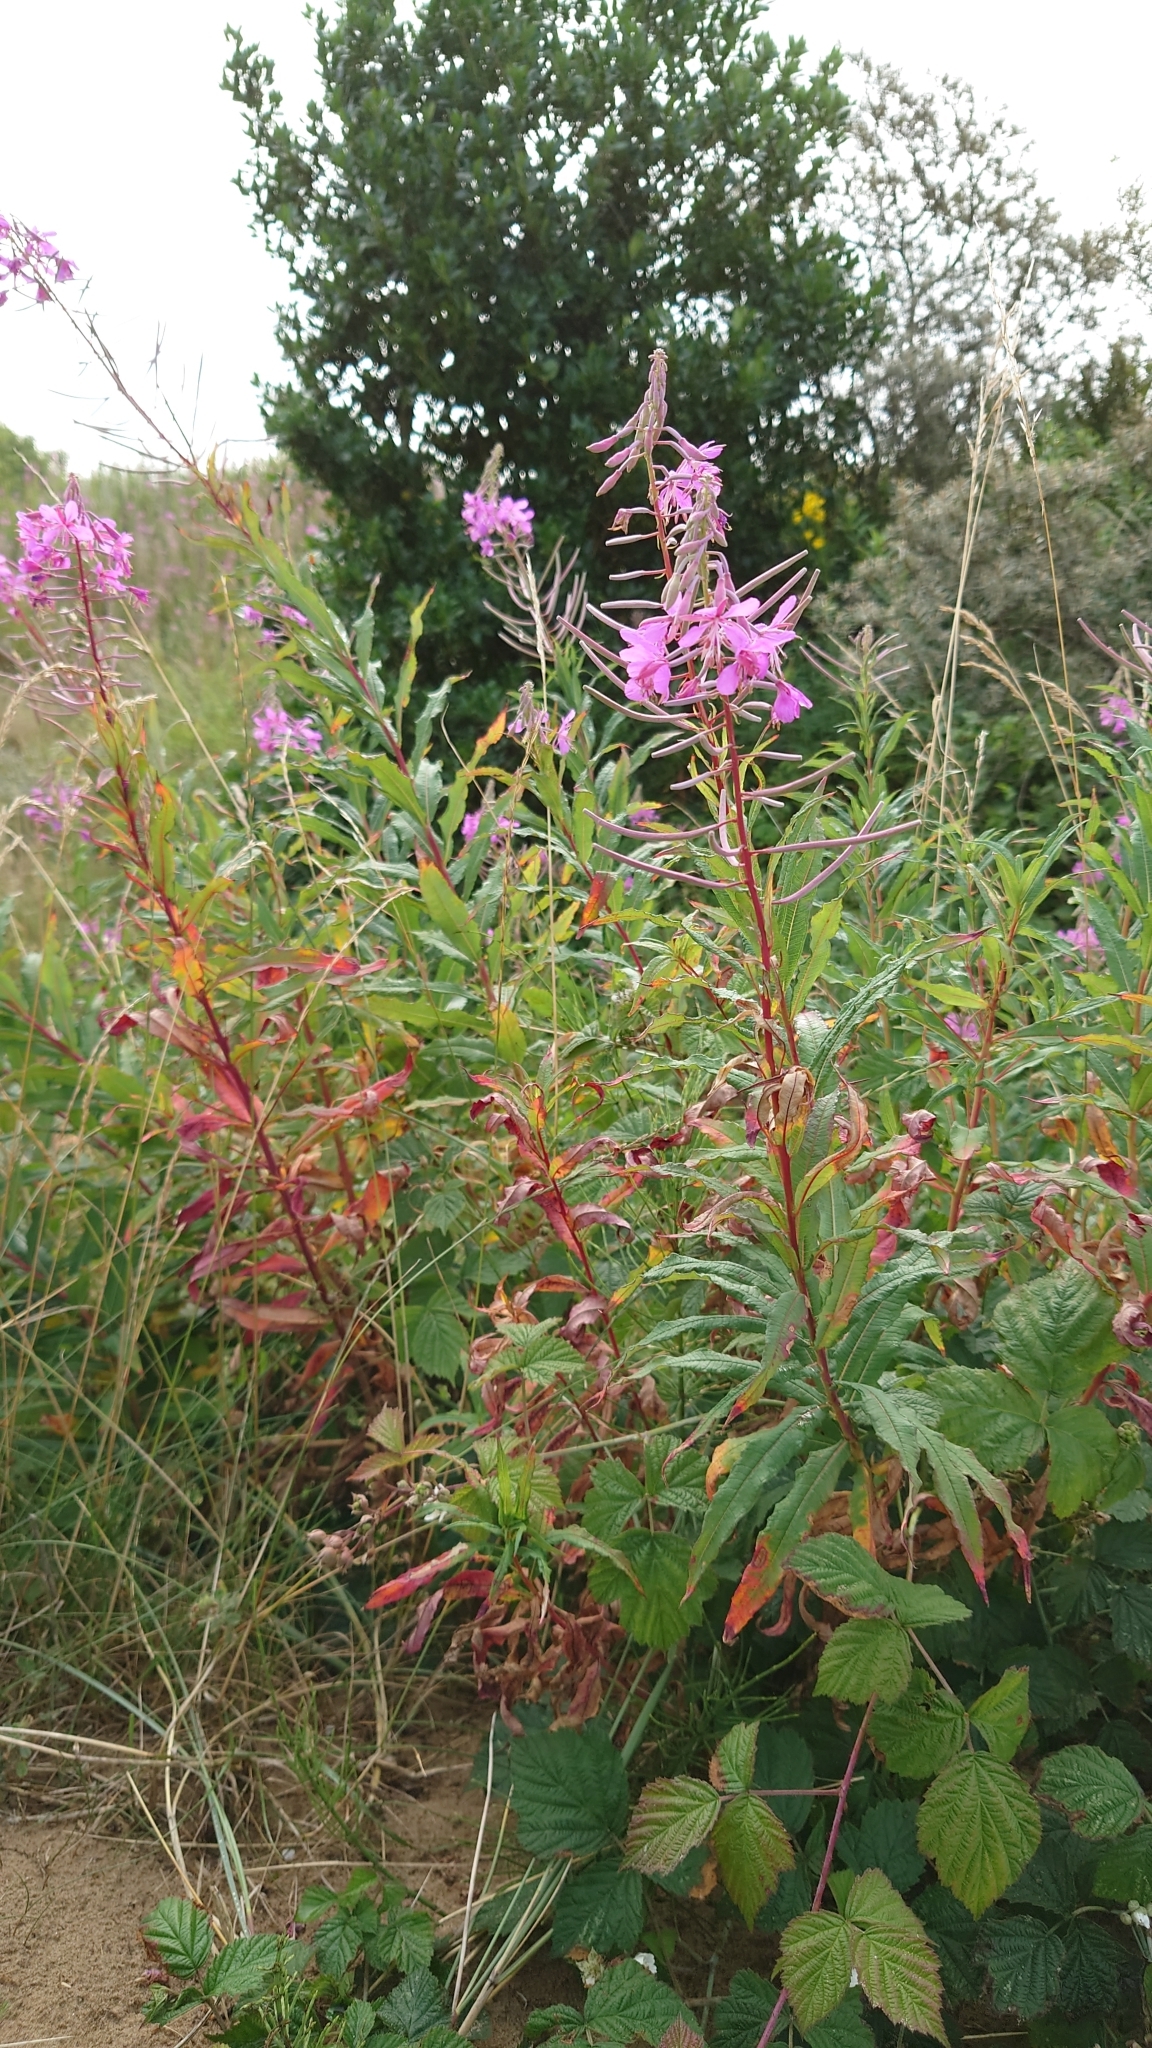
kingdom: Plantae
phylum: Tracheophyta
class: Magnoliopsida
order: Myrtales
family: Onagraceae
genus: Chamaenerion
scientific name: Chamaenerion angustifolium
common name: Fireweed
